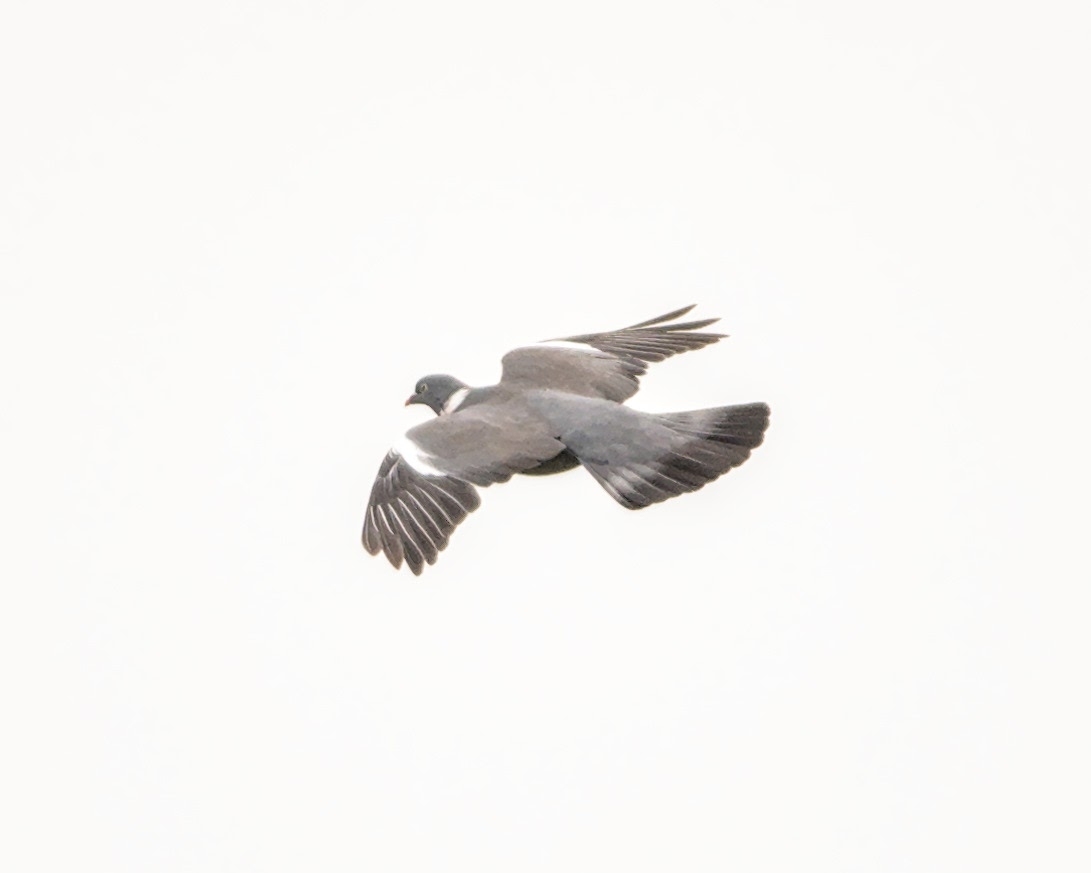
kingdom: Animalia
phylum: Chordata
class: Aves
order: Columbiformes
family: Columbidae
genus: Columba
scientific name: Columba palumbus
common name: Common wood pigeon
